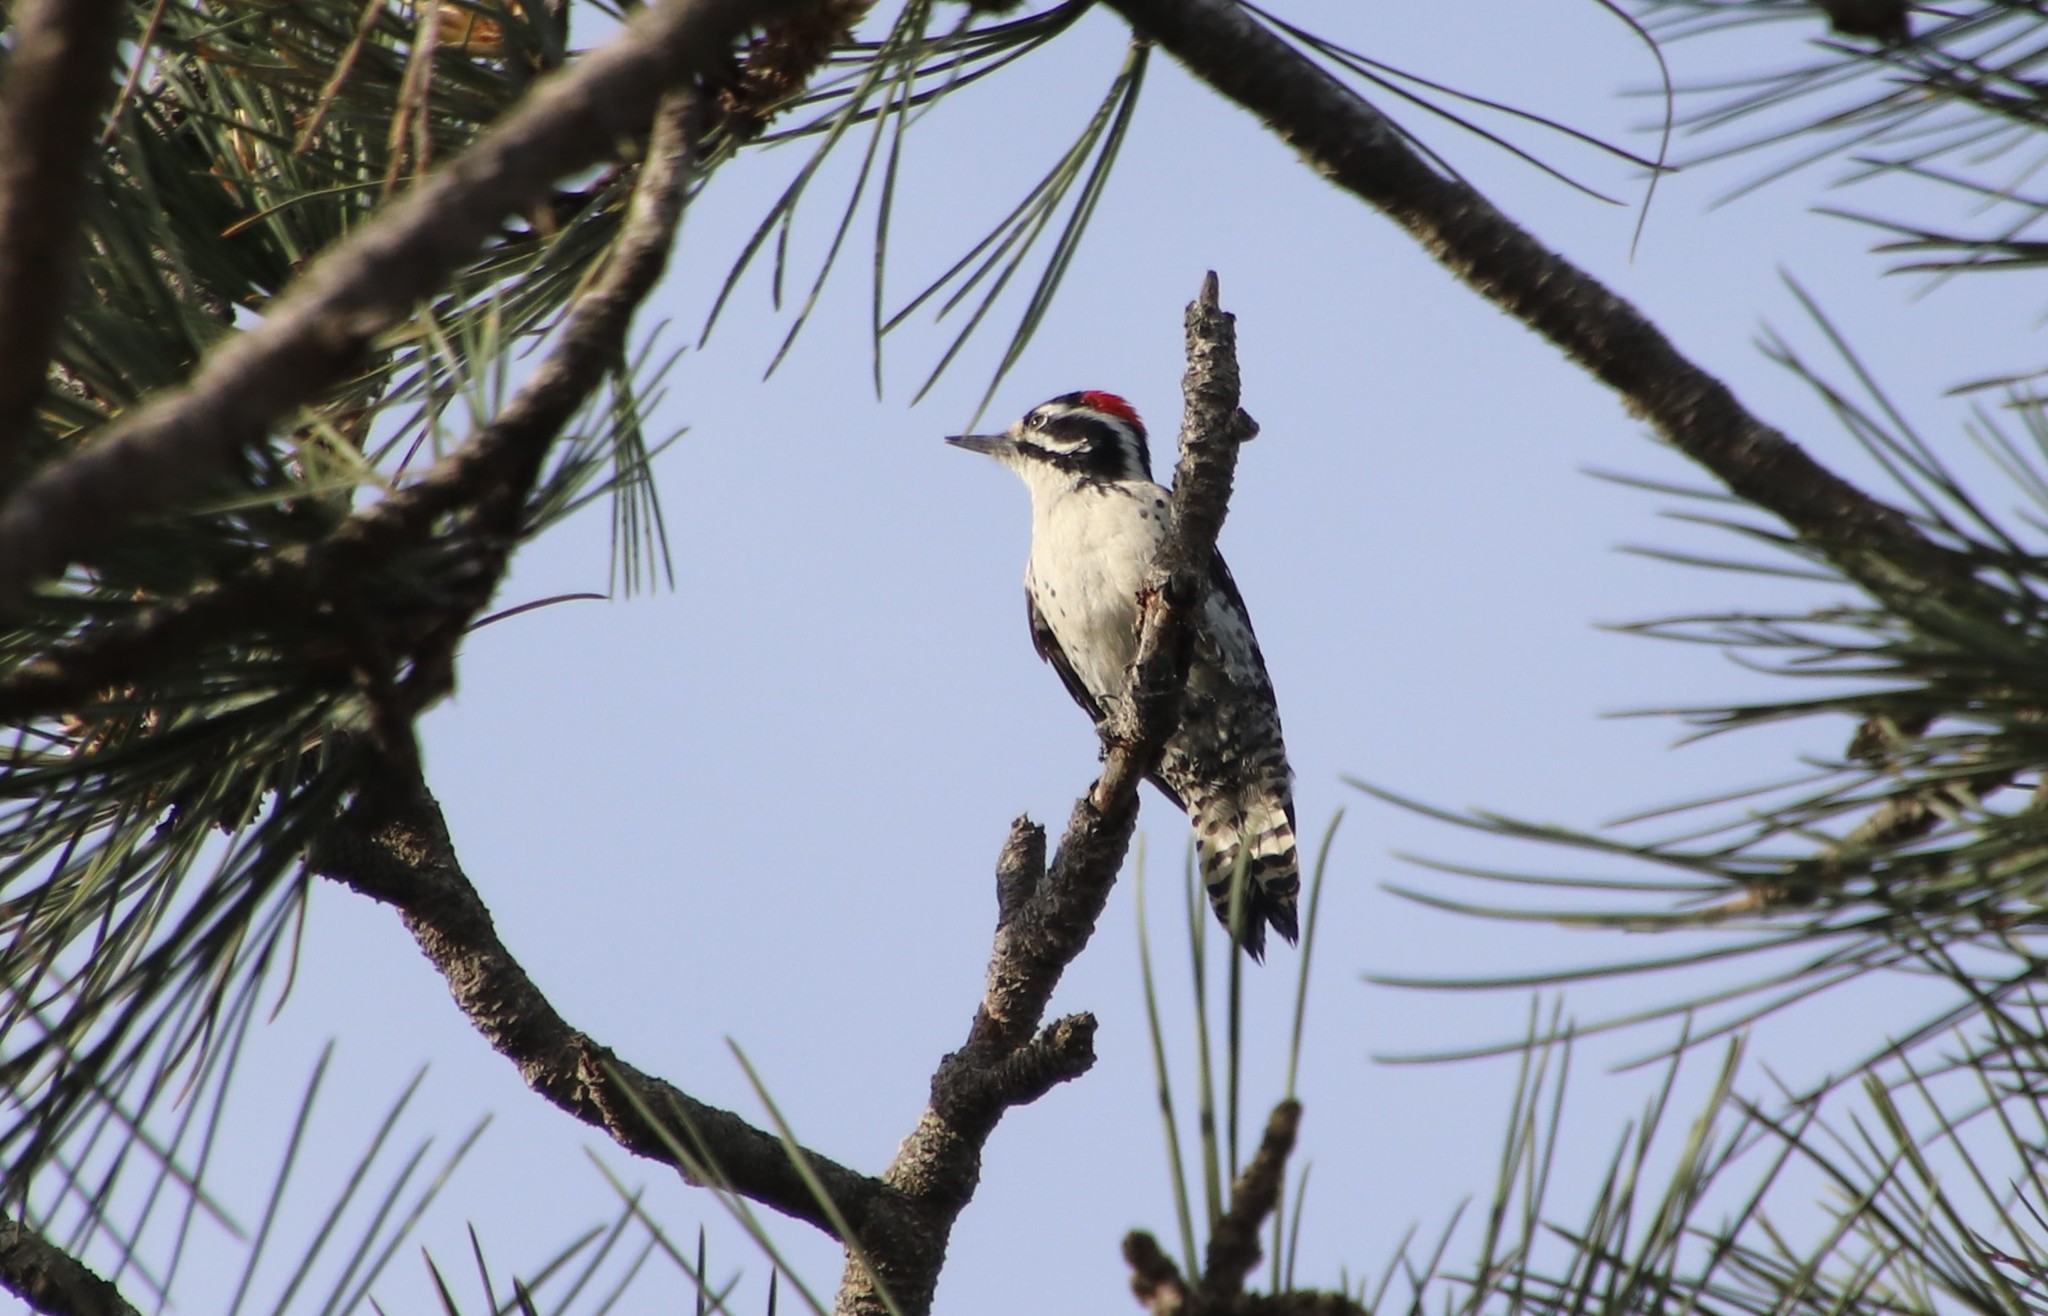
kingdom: Animalia
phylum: Chordata
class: Aves
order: Piciformes
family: Picidae
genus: Dryobates
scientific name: Dryobates nuttallii
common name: Nuttall's woodpecker
